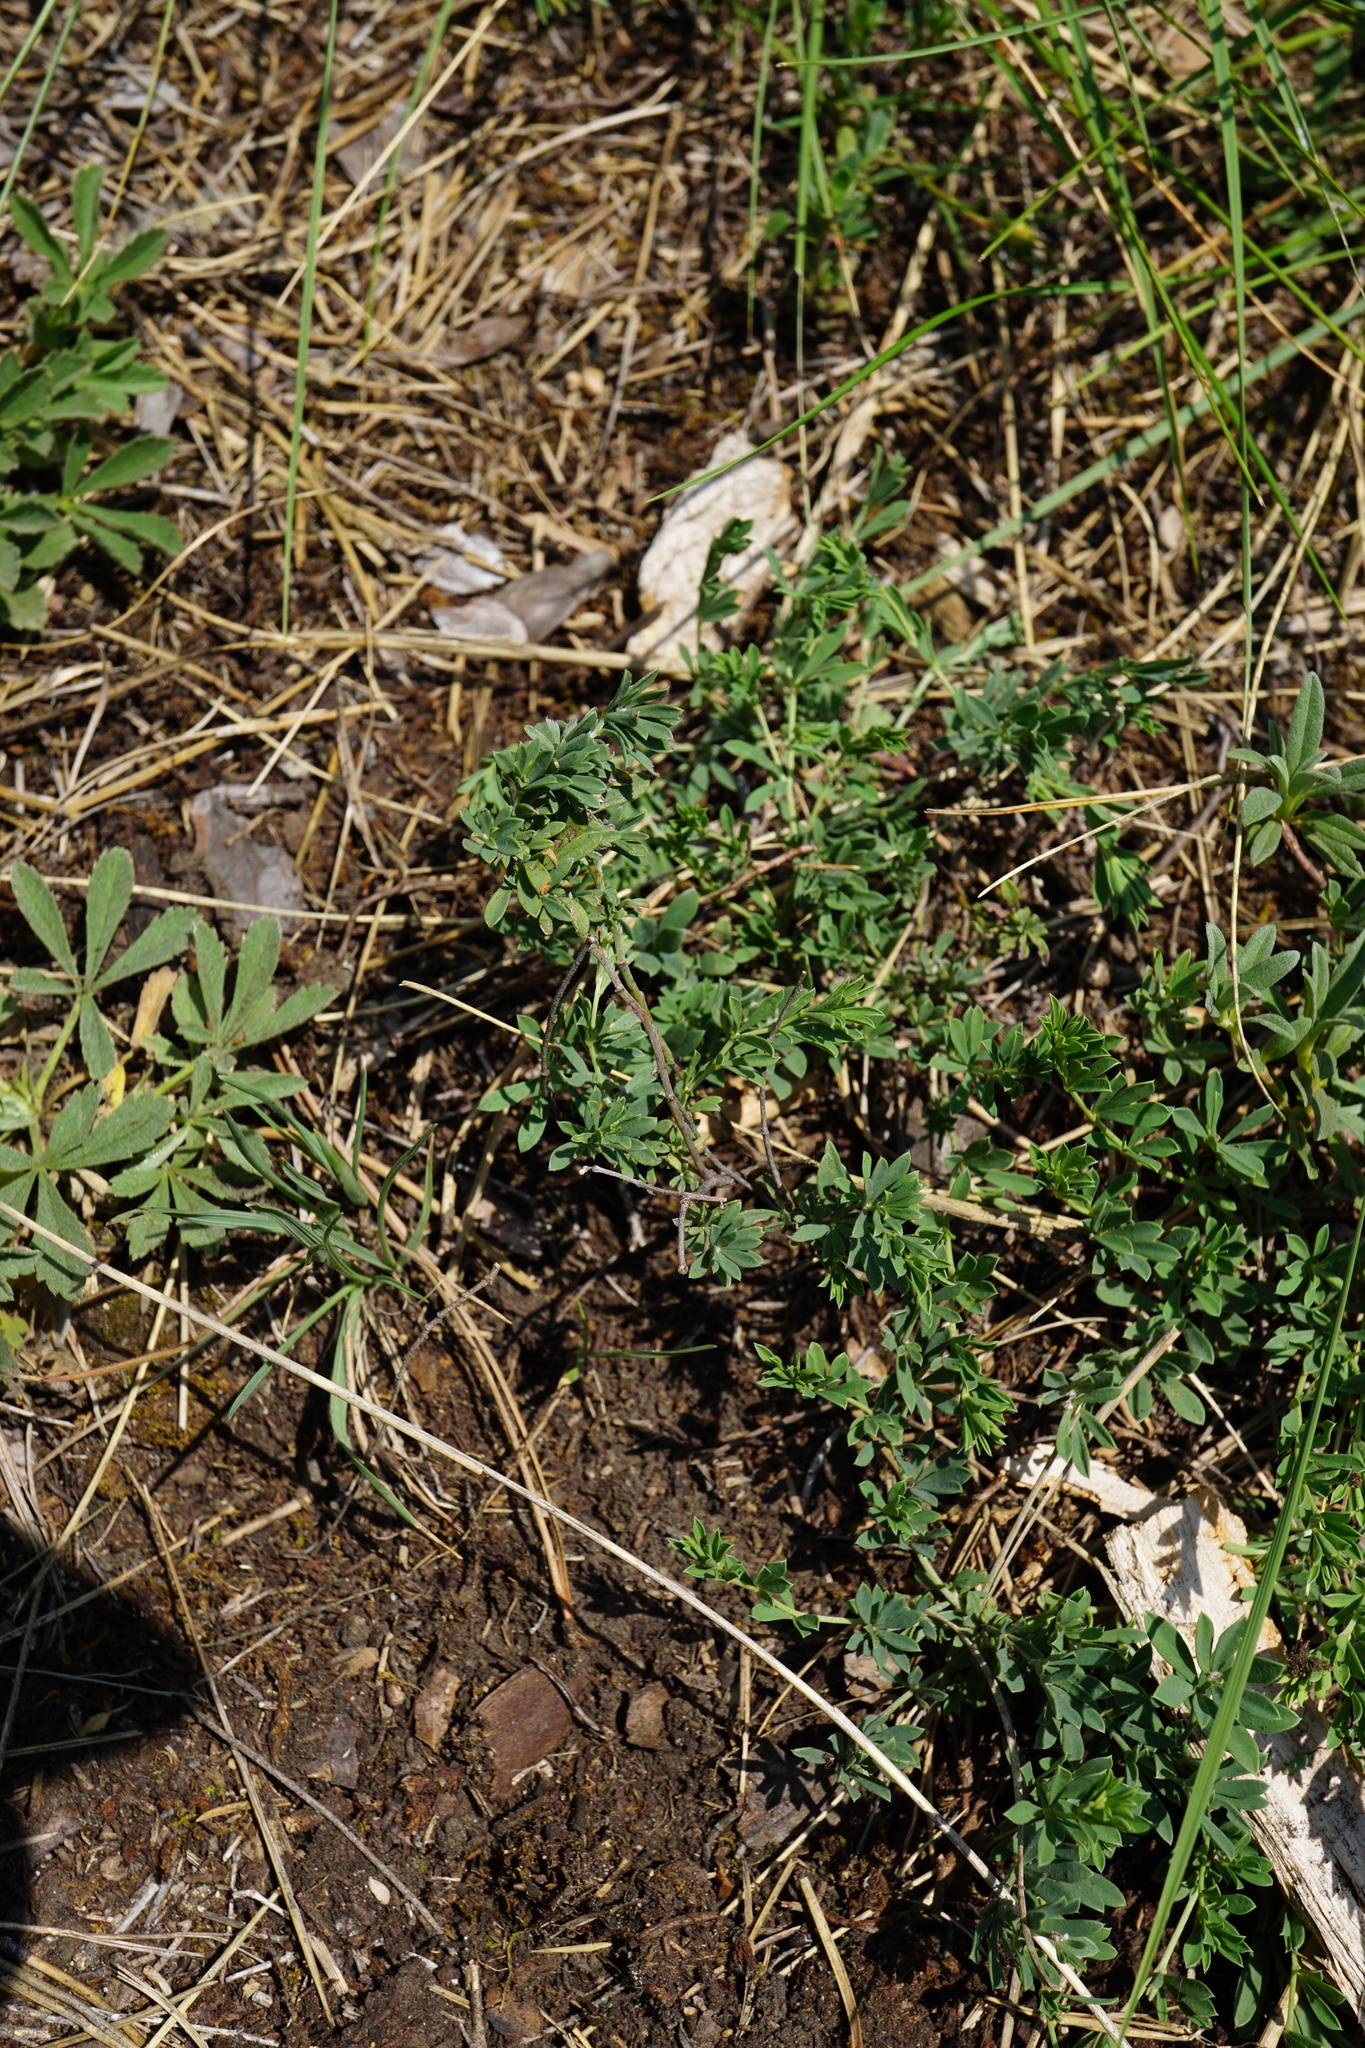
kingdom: Plantae
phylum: Tracheophyta
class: Magnoliopsida
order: Fabales
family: Fabaceae
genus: Lotus
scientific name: Lotus germanicus
